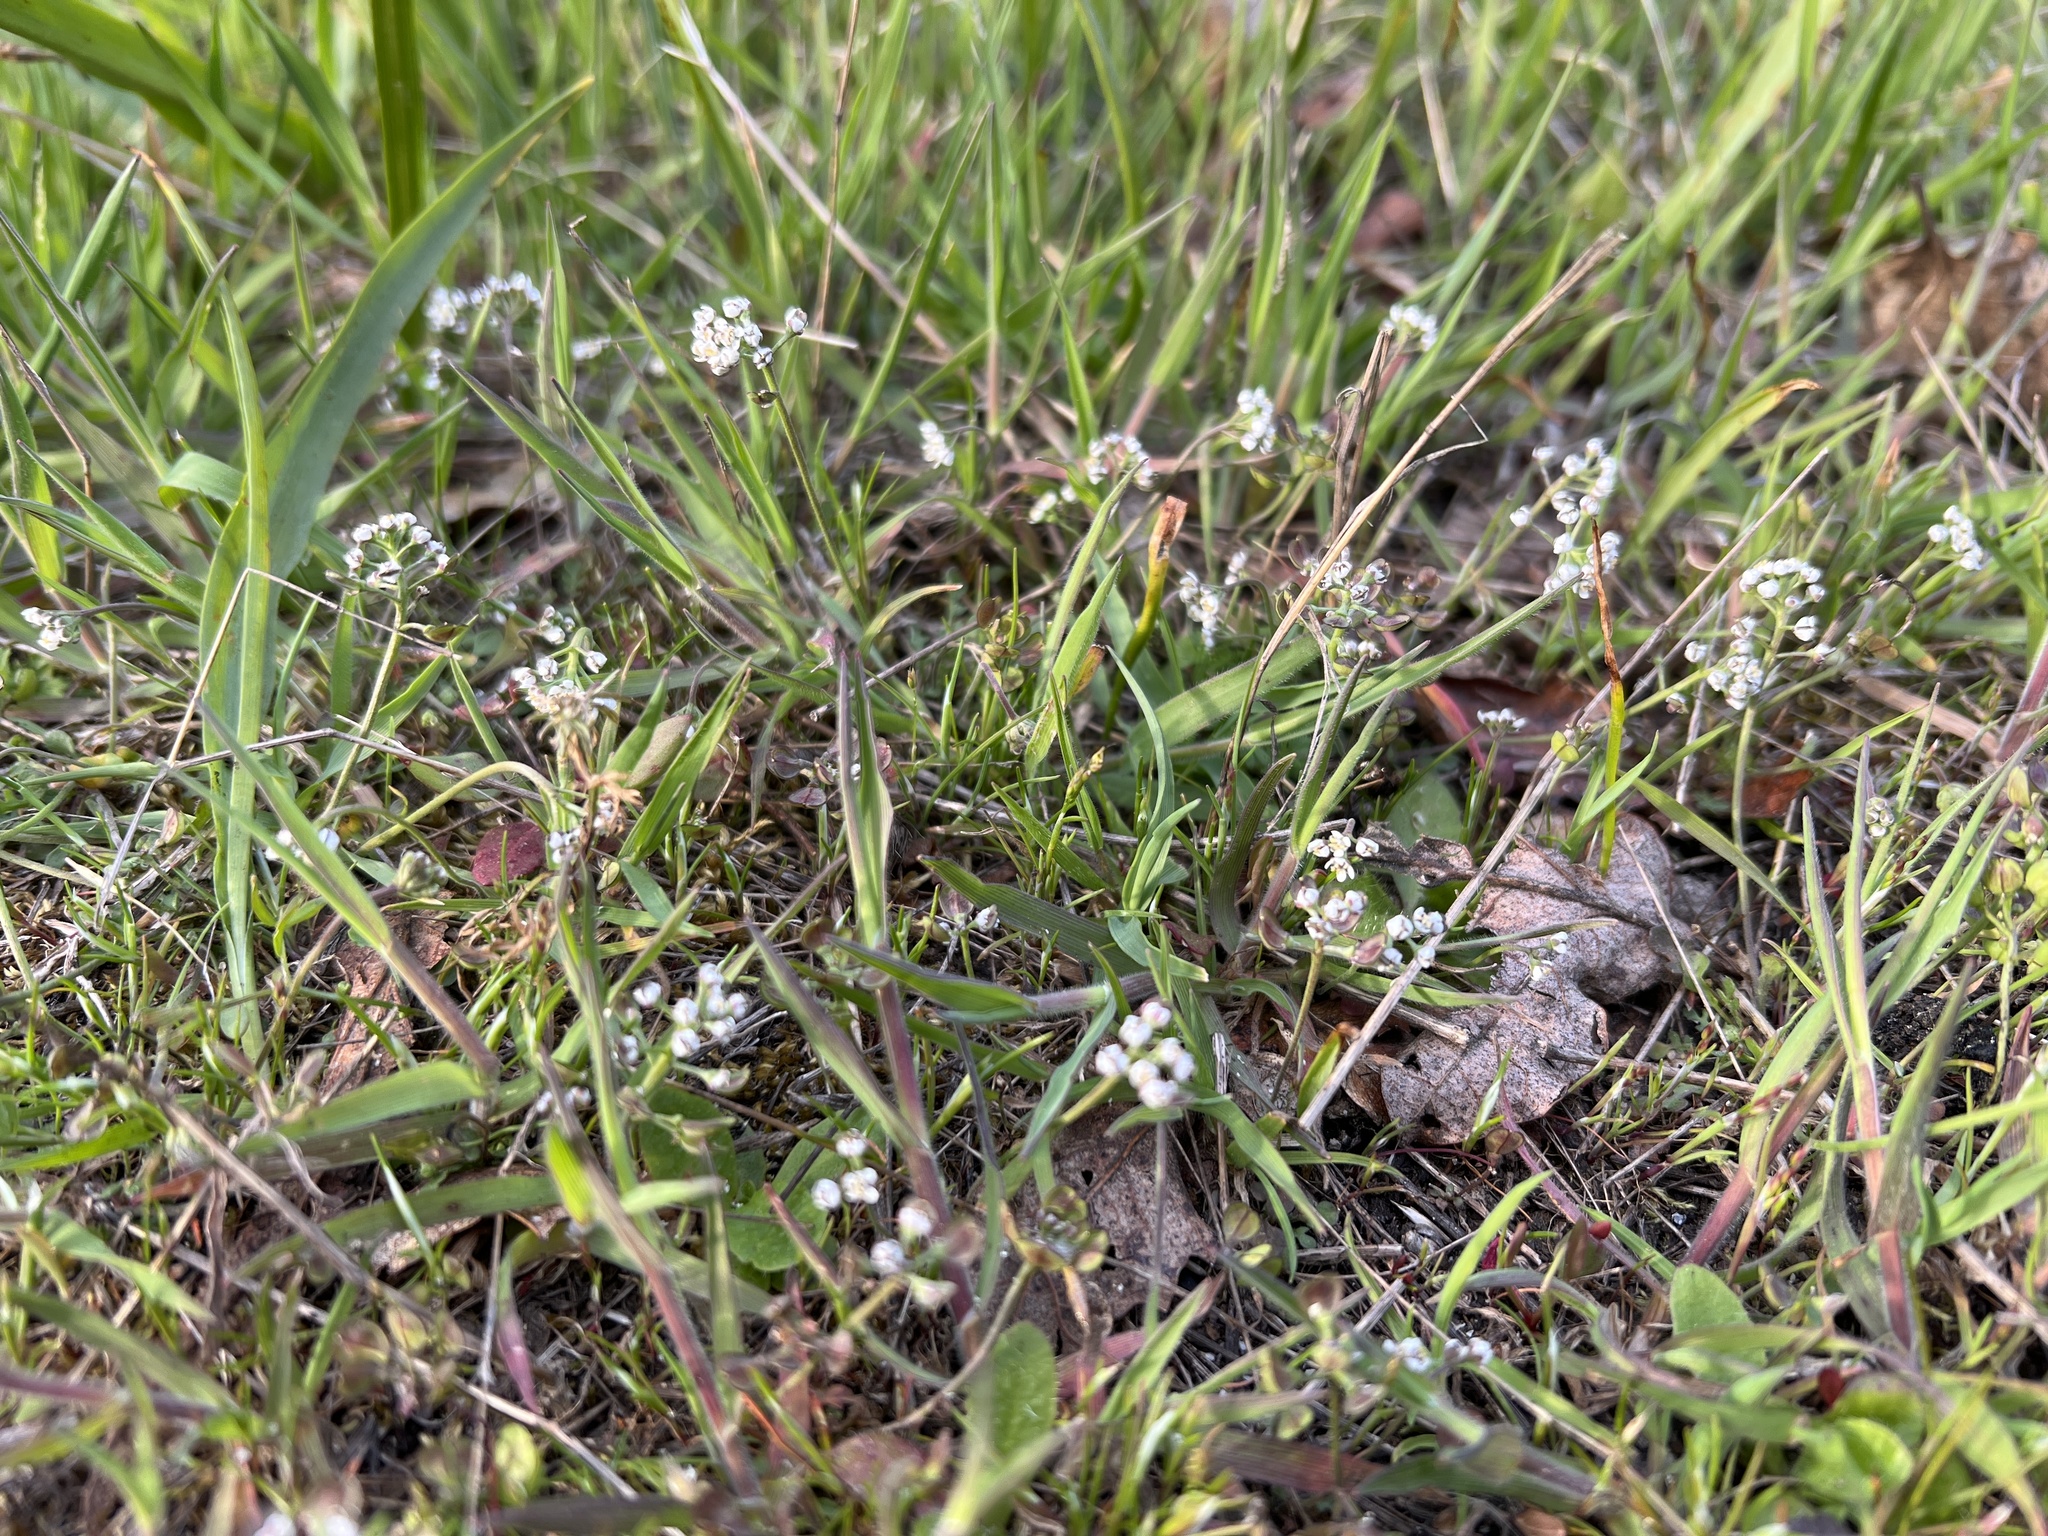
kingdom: Plantae
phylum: Tracheophyta
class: Magnoliopsida
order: Brassicales
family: Brassicaceae
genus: Teesdalia
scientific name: Teesdalia nudicaulis
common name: Shepherd's cress
